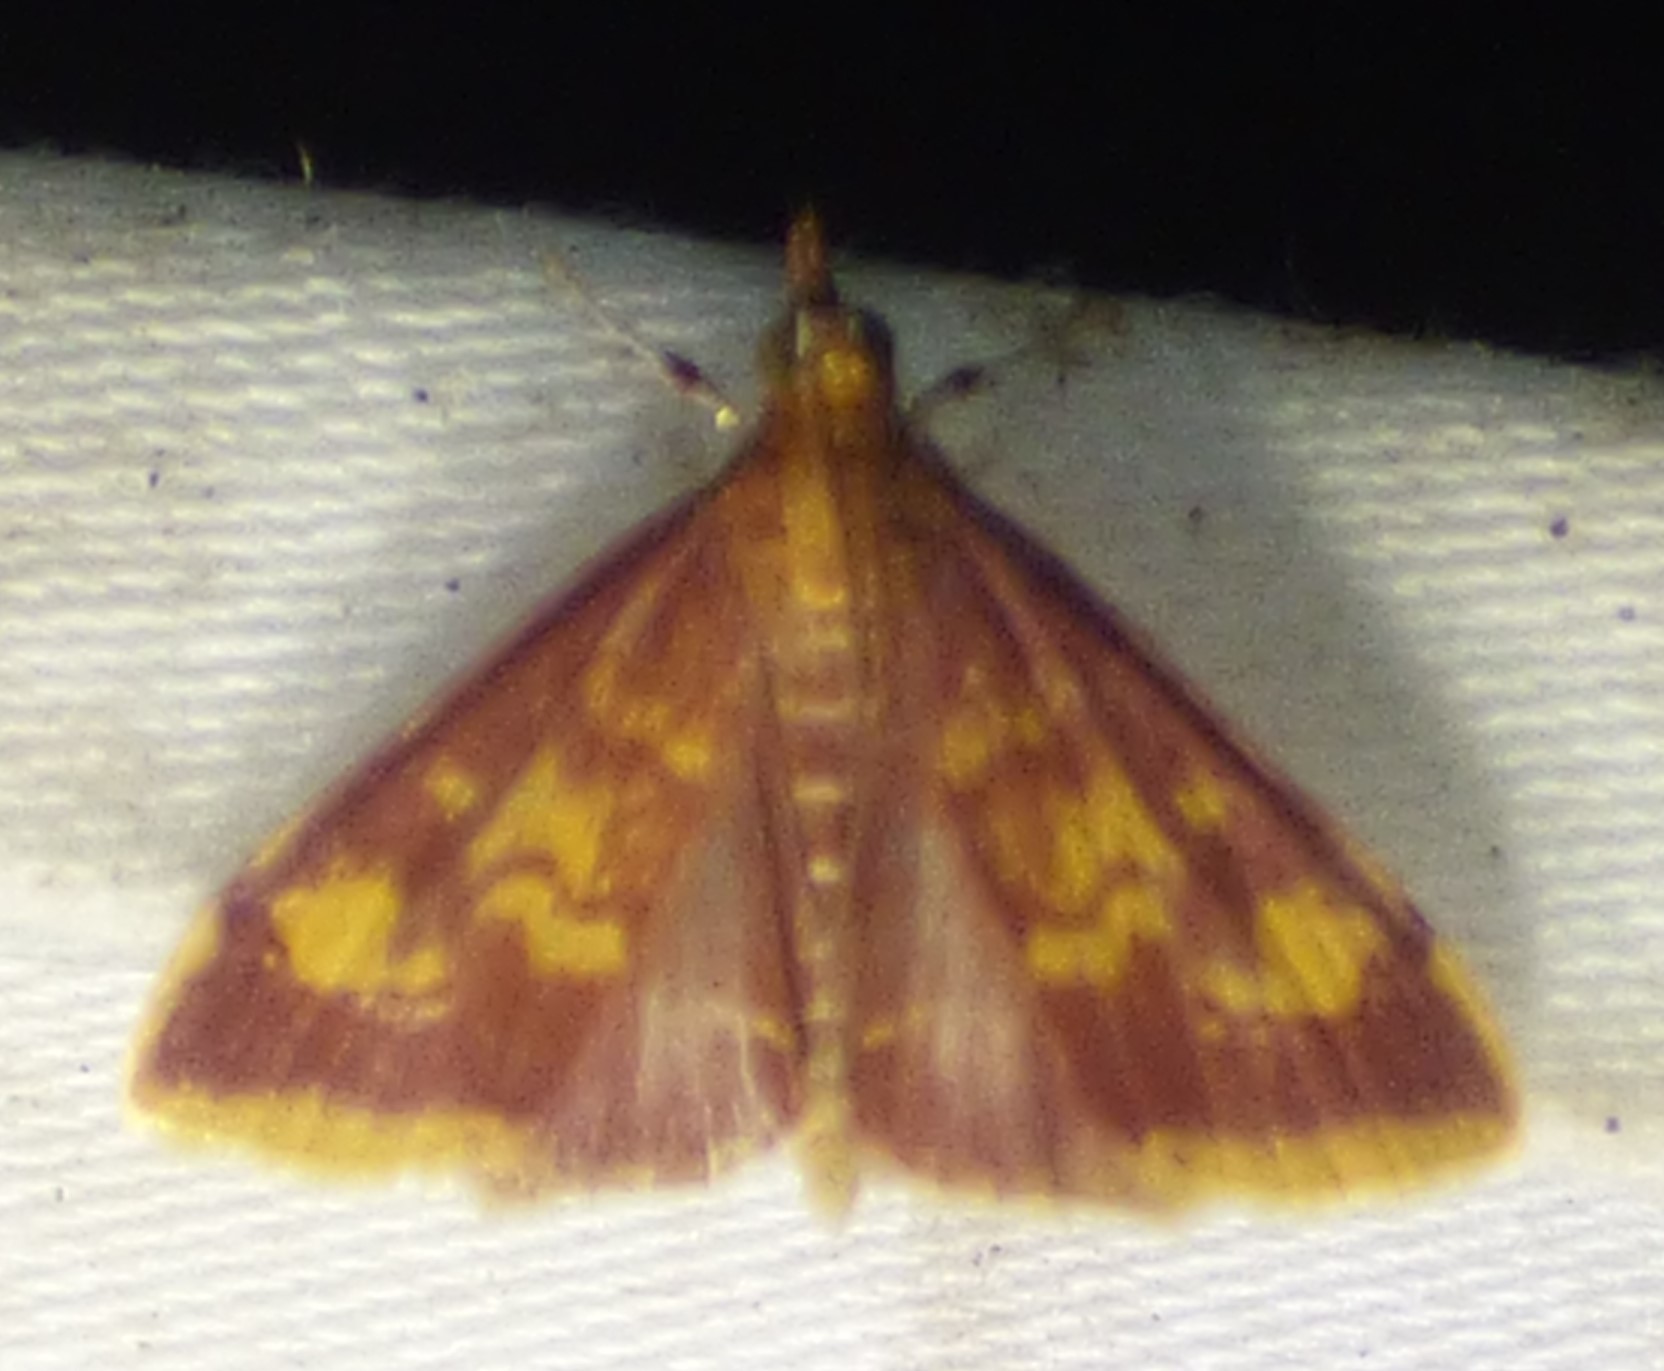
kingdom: Animalia
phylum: Arthropoda
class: Insecta
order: Lepidoptera
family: Crambidae
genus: Pyrausta
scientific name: Pyrausta acrionalis
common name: Mint-loving pyrausta moth
